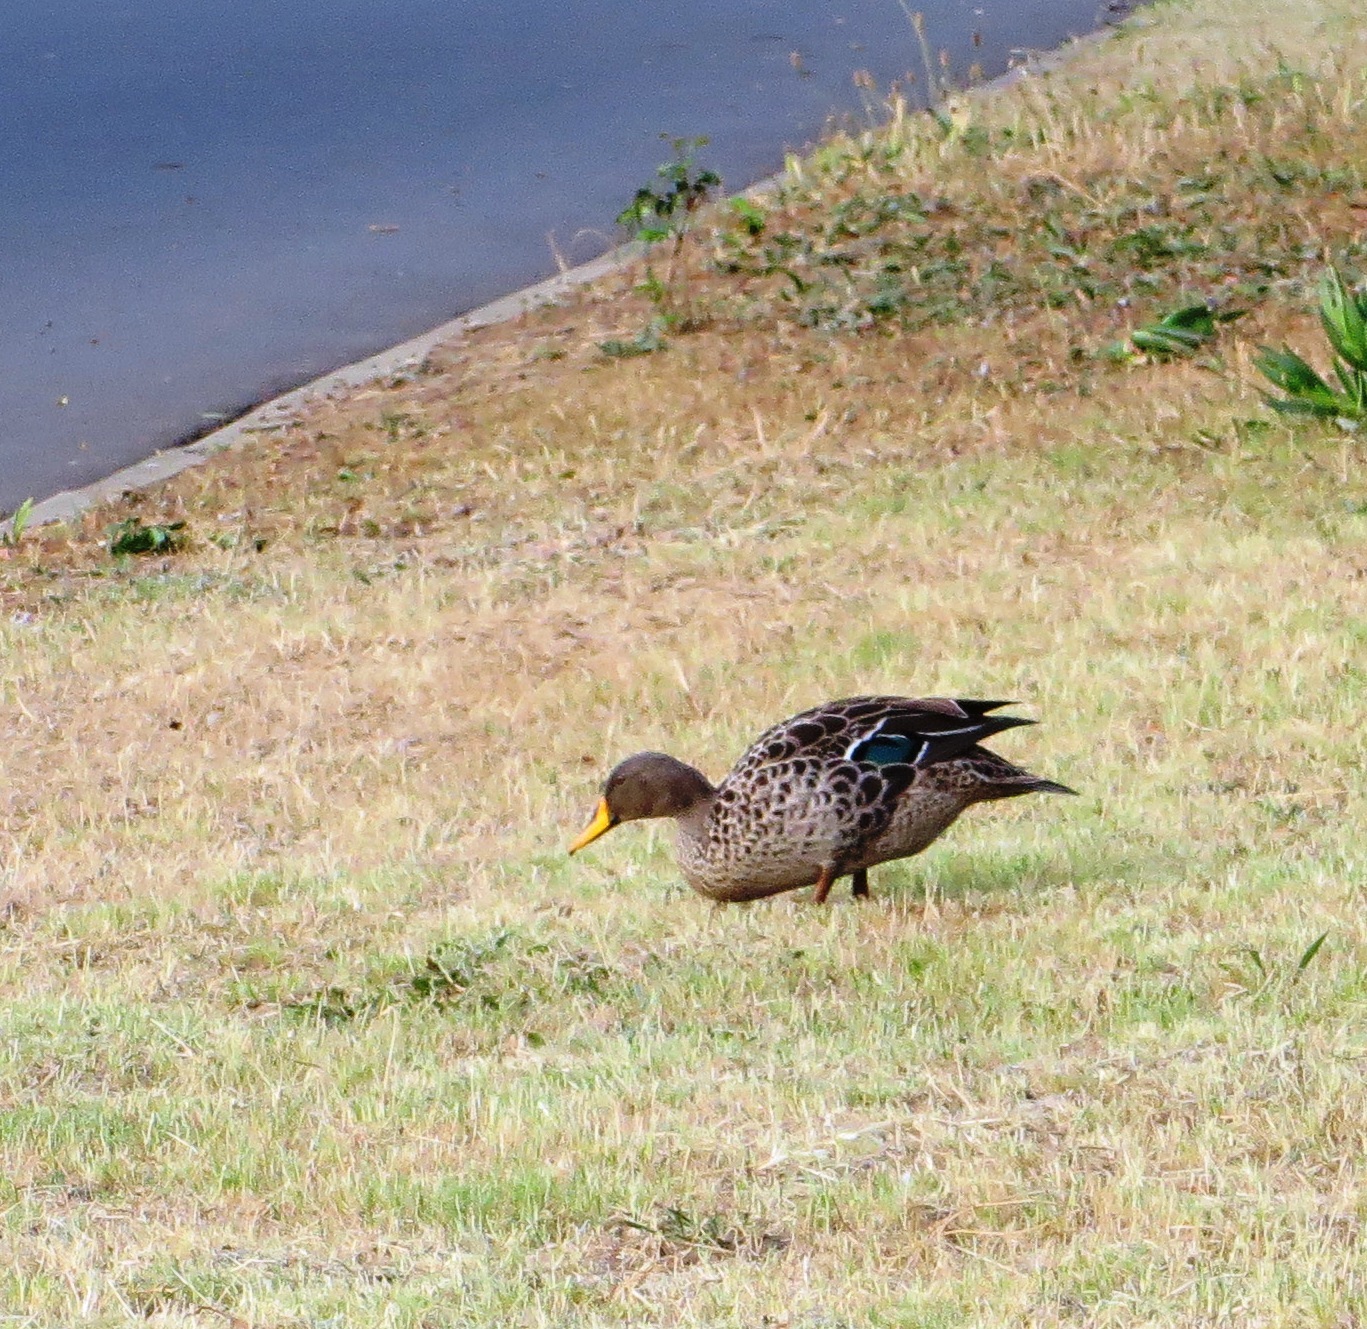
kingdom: Animalia
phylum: Chordata
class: Aves
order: Anseriformes
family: Anatidae
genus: Anas
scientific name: Anas undulata
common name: Yellow-billed duck
